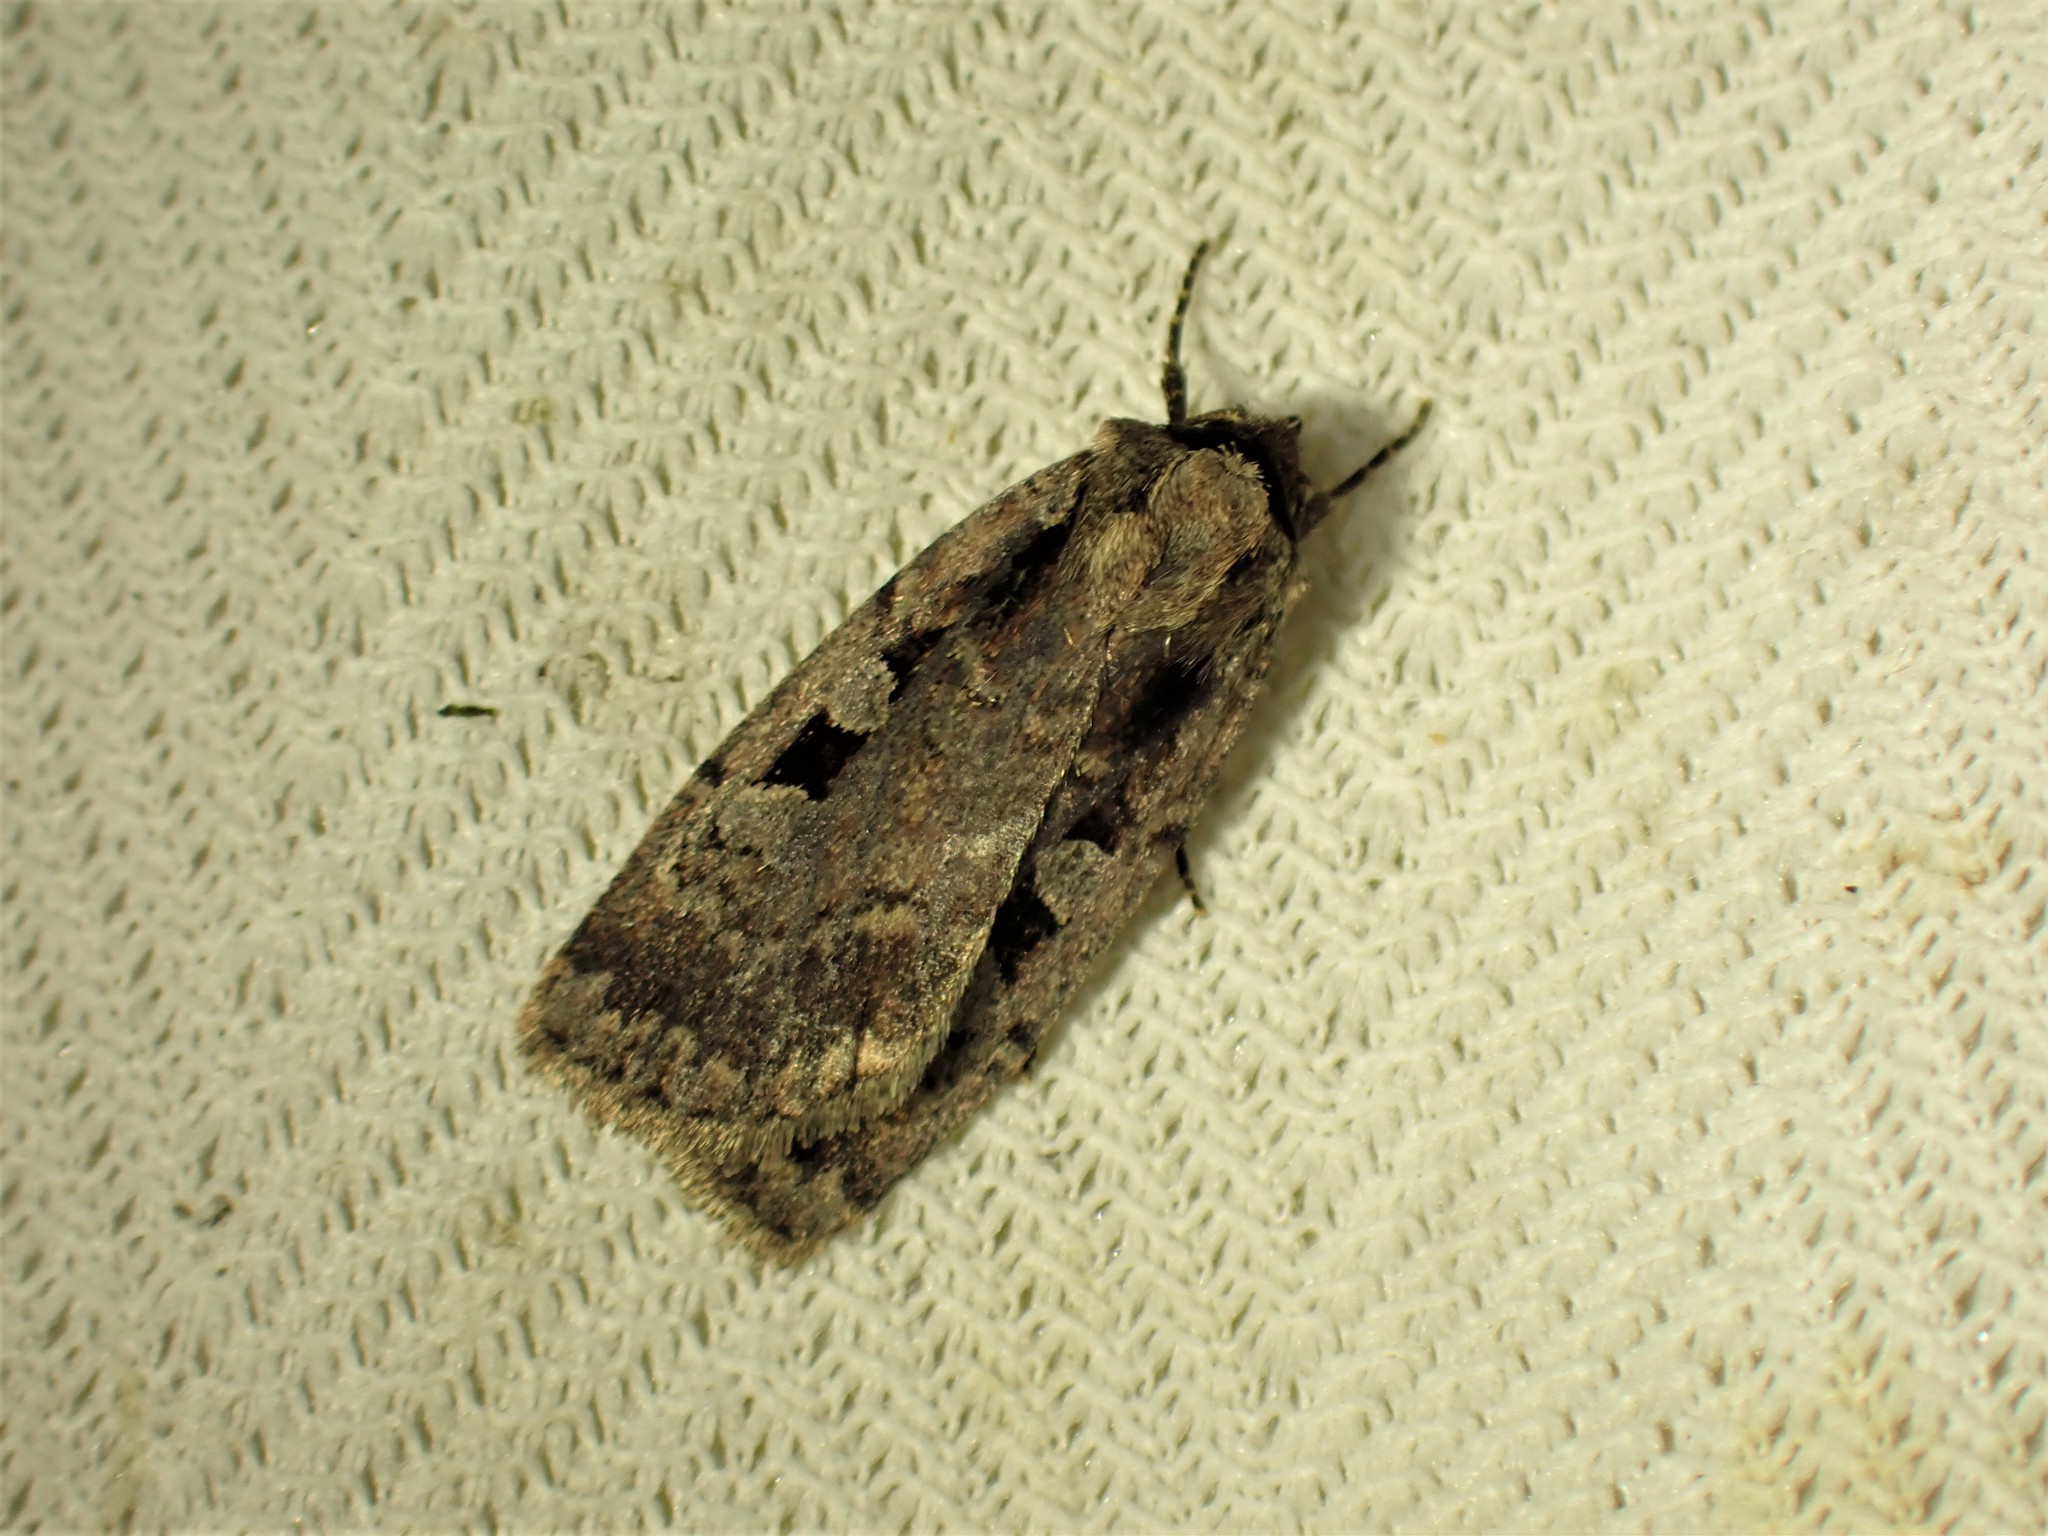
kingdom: Animalia
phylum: Arthropoda
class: Insecta
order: Lepidoptera
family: Noctuidae
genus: Eueretagrotis
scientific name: Eueretagrotis perattentus
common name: Two-spot dart moth
